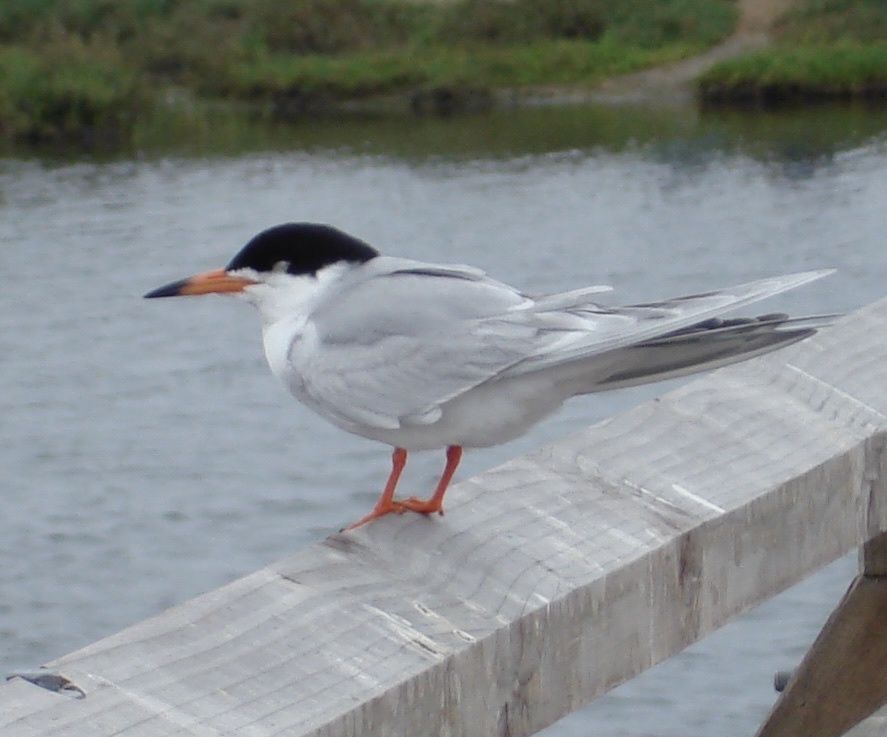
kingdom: Animalia
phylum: Chordata
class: Aves
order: Charadriiformes
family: Laridae
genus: Sterna
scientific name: Sterna forsteri
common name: Forster's tern
